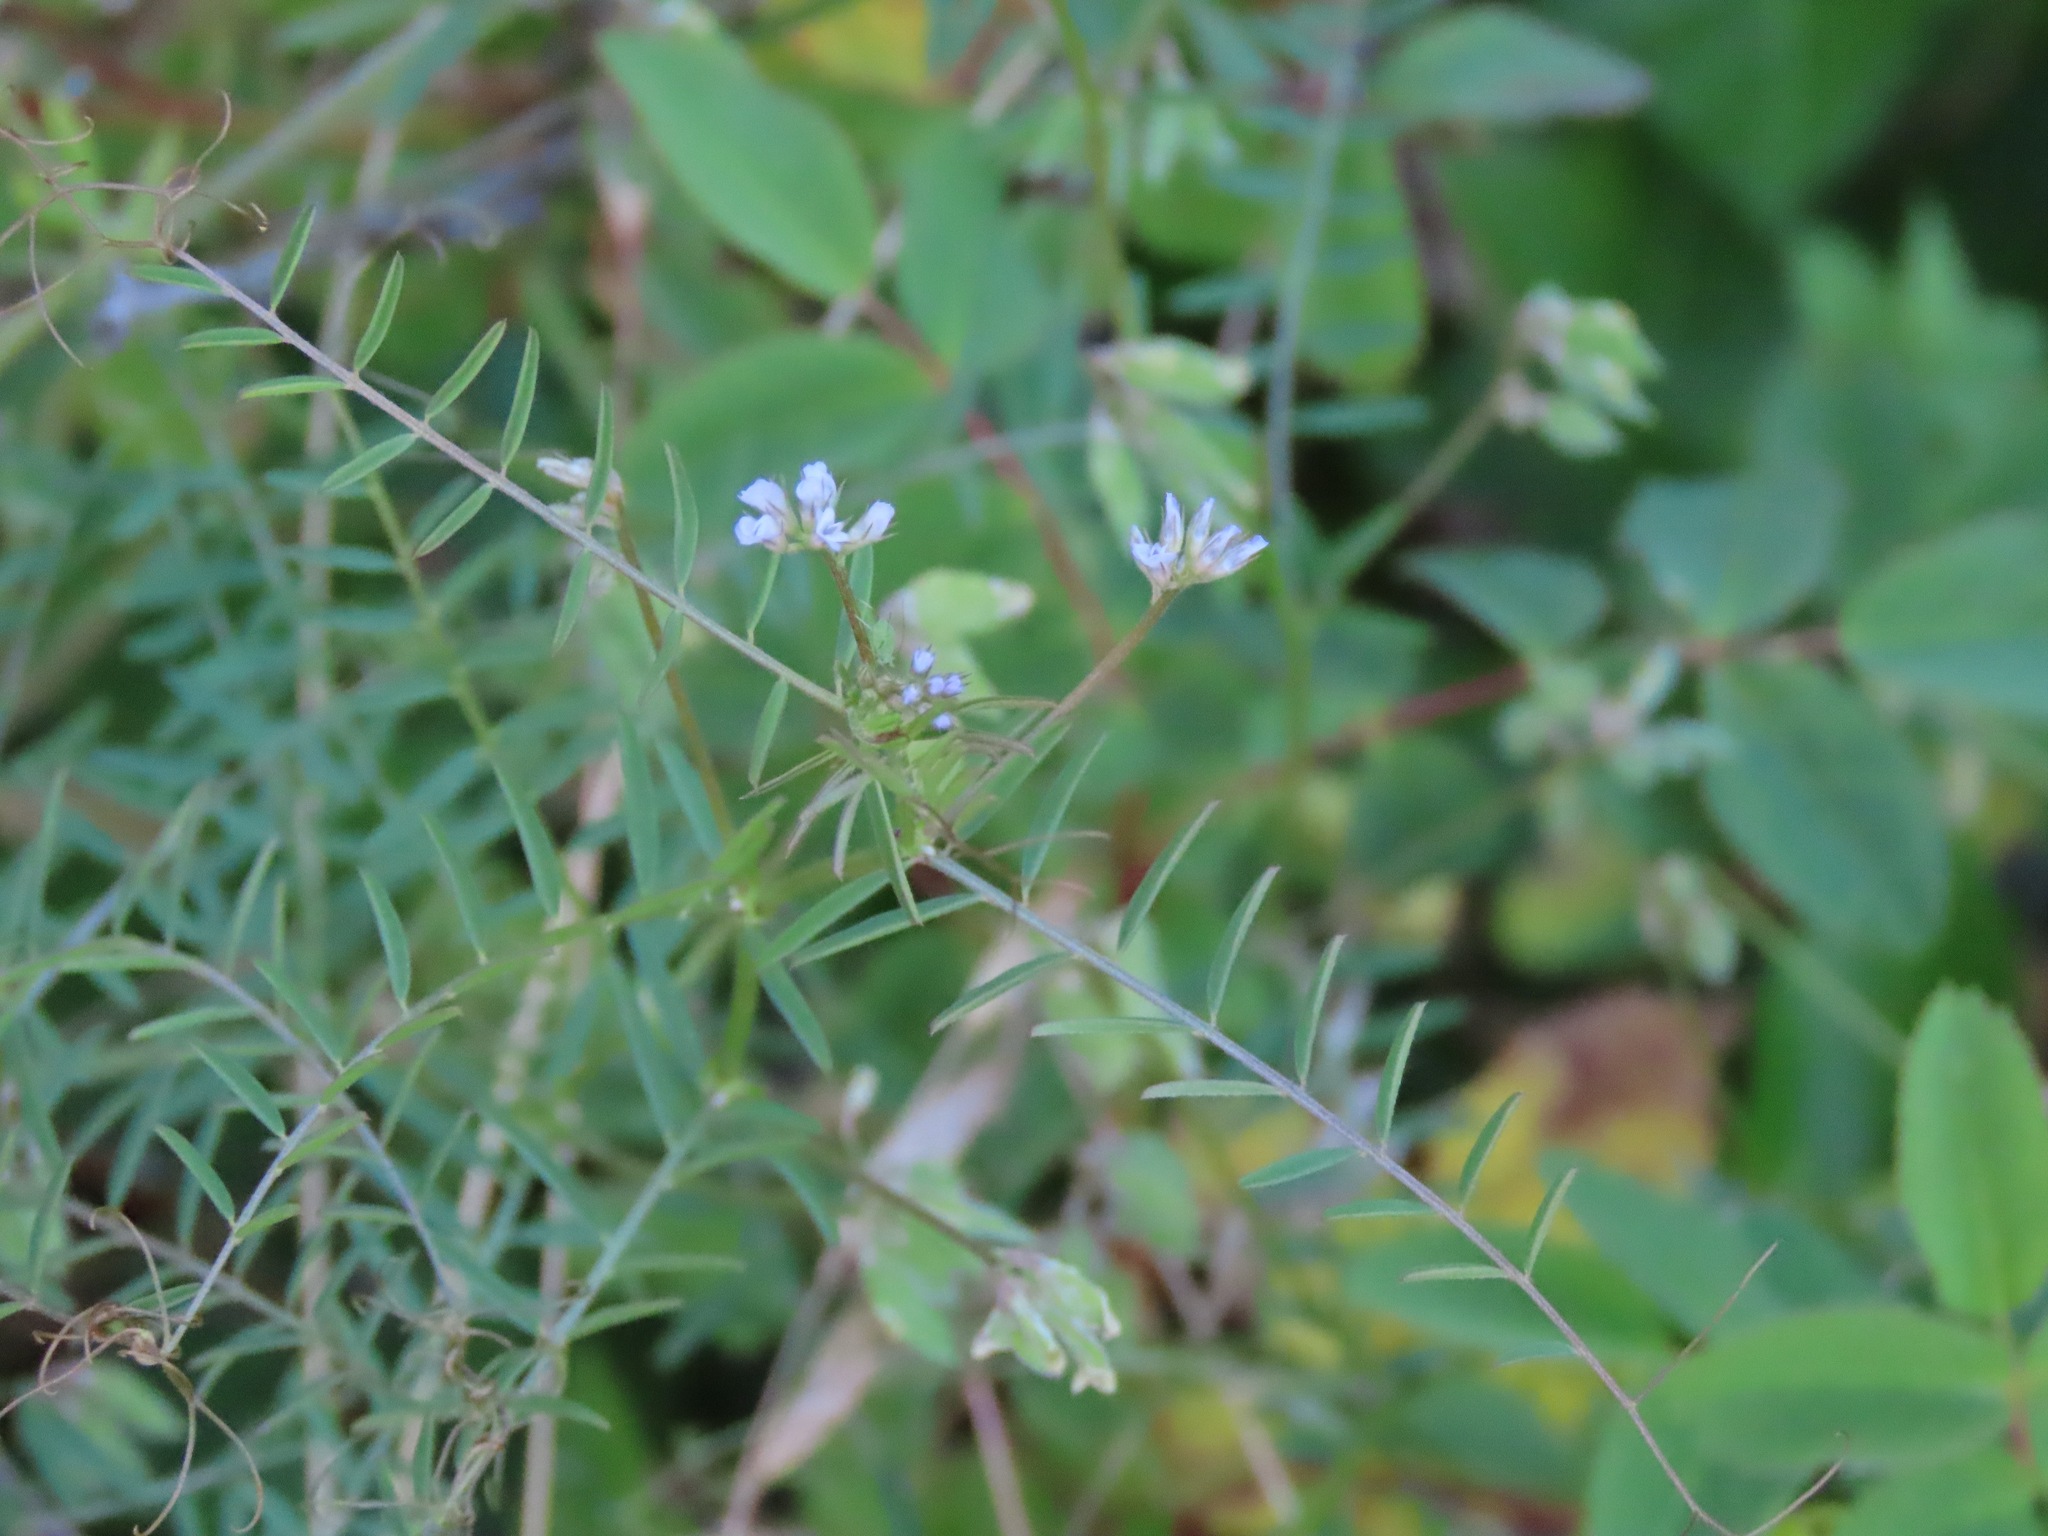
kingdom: Plantae
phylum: Tracheophyta
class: Magnoliopsida
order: Fabales
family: Fabaceae
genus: Vicia
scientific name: Vicia hirsuta
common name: Tiny vetch
